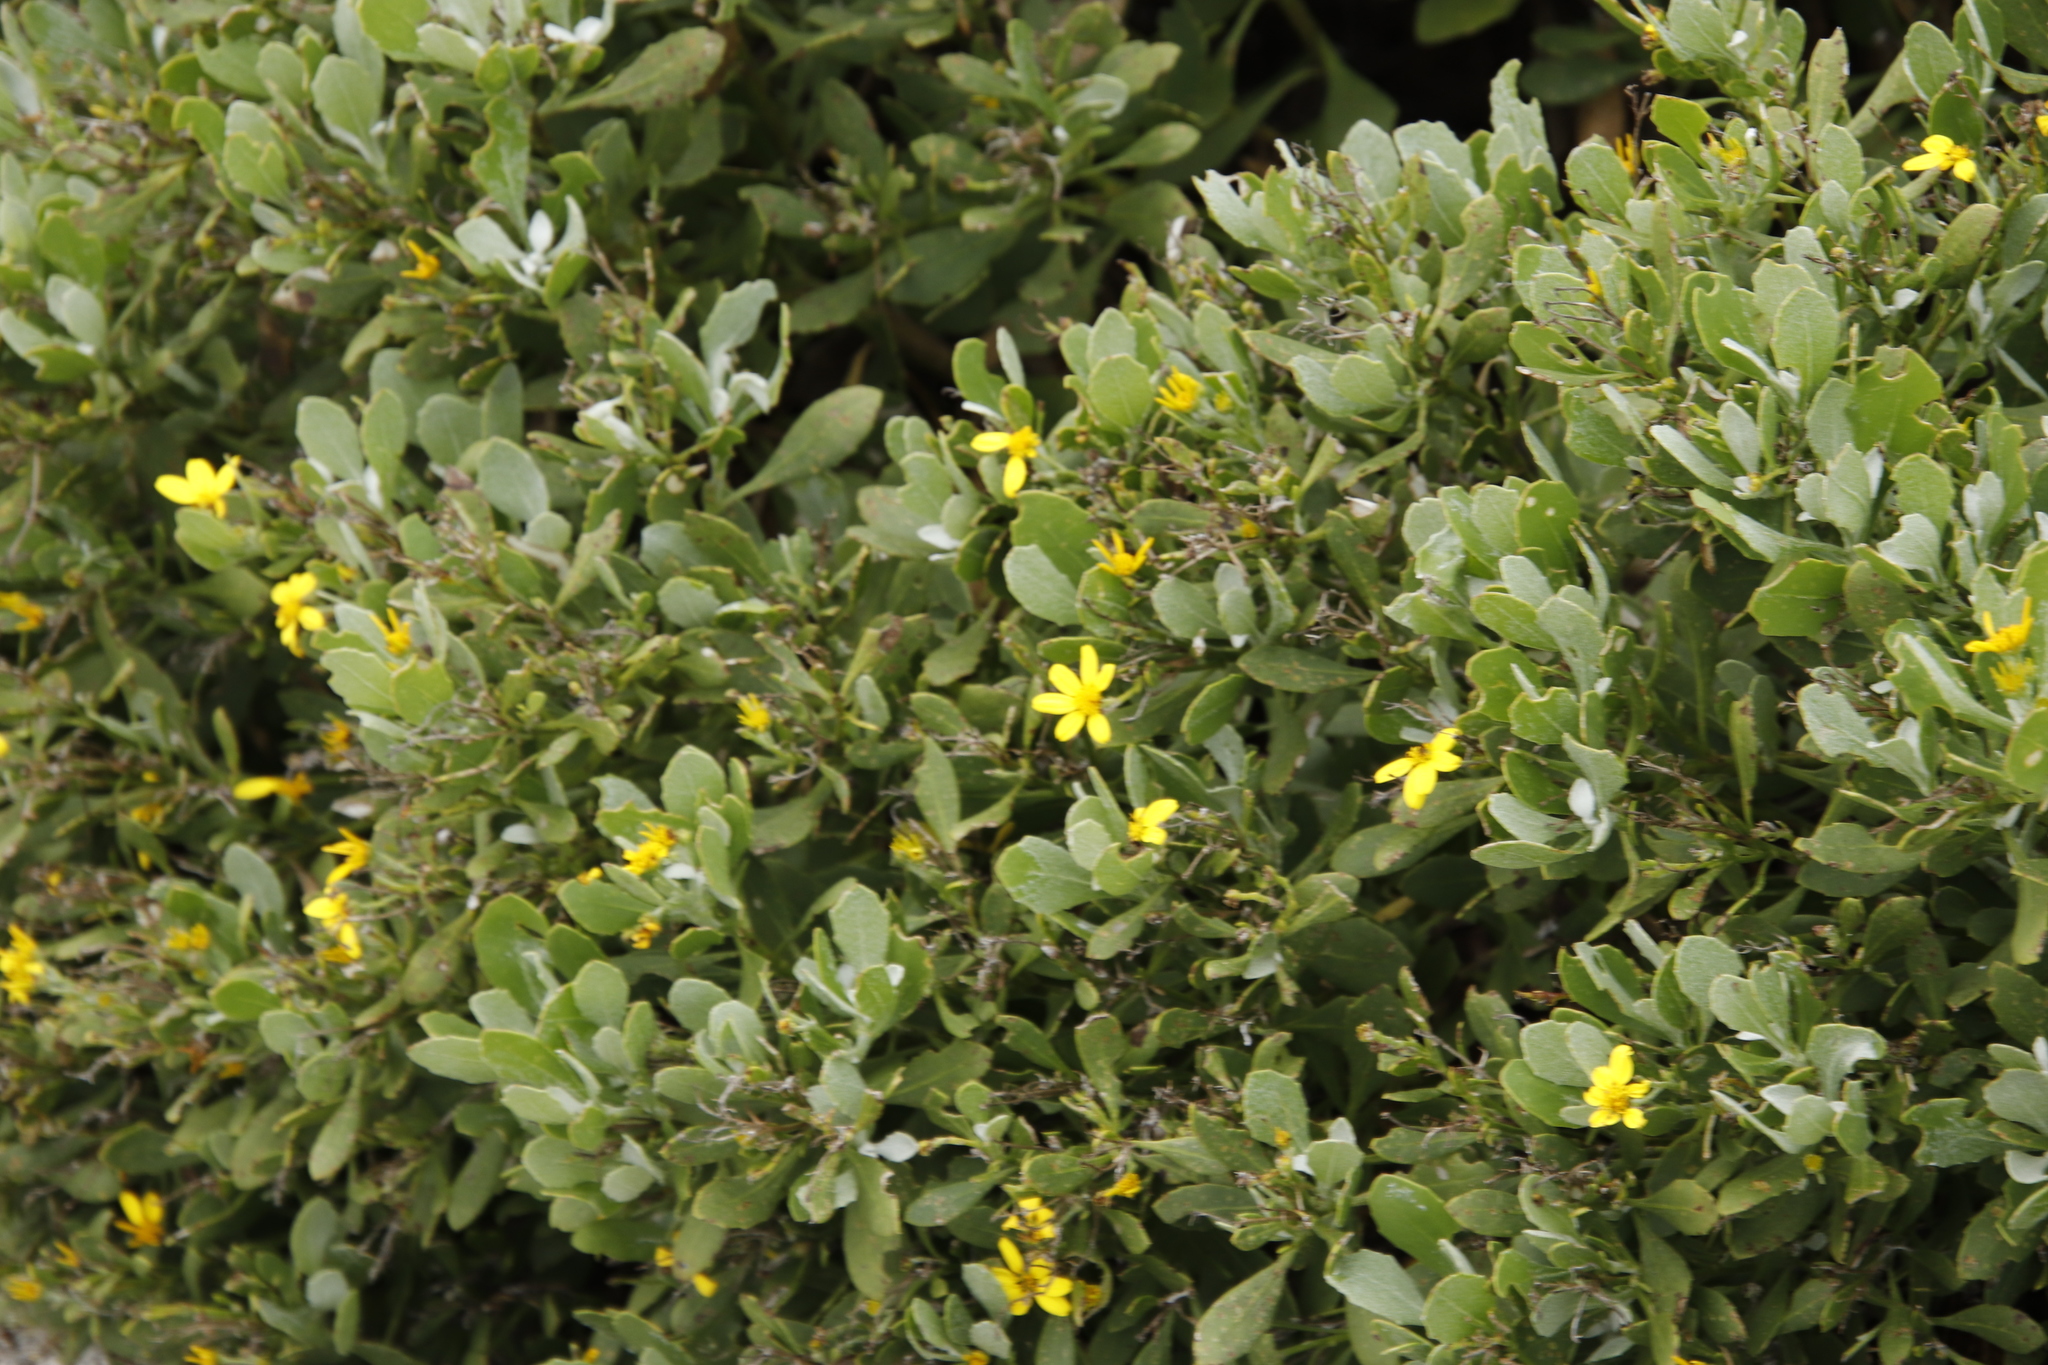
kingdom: Plantae
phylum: Tracheophyta
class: Magnoliopsida
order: Asterales
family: Asteraceae
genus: Osteospermum
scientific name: Osteospermum moniliferum
